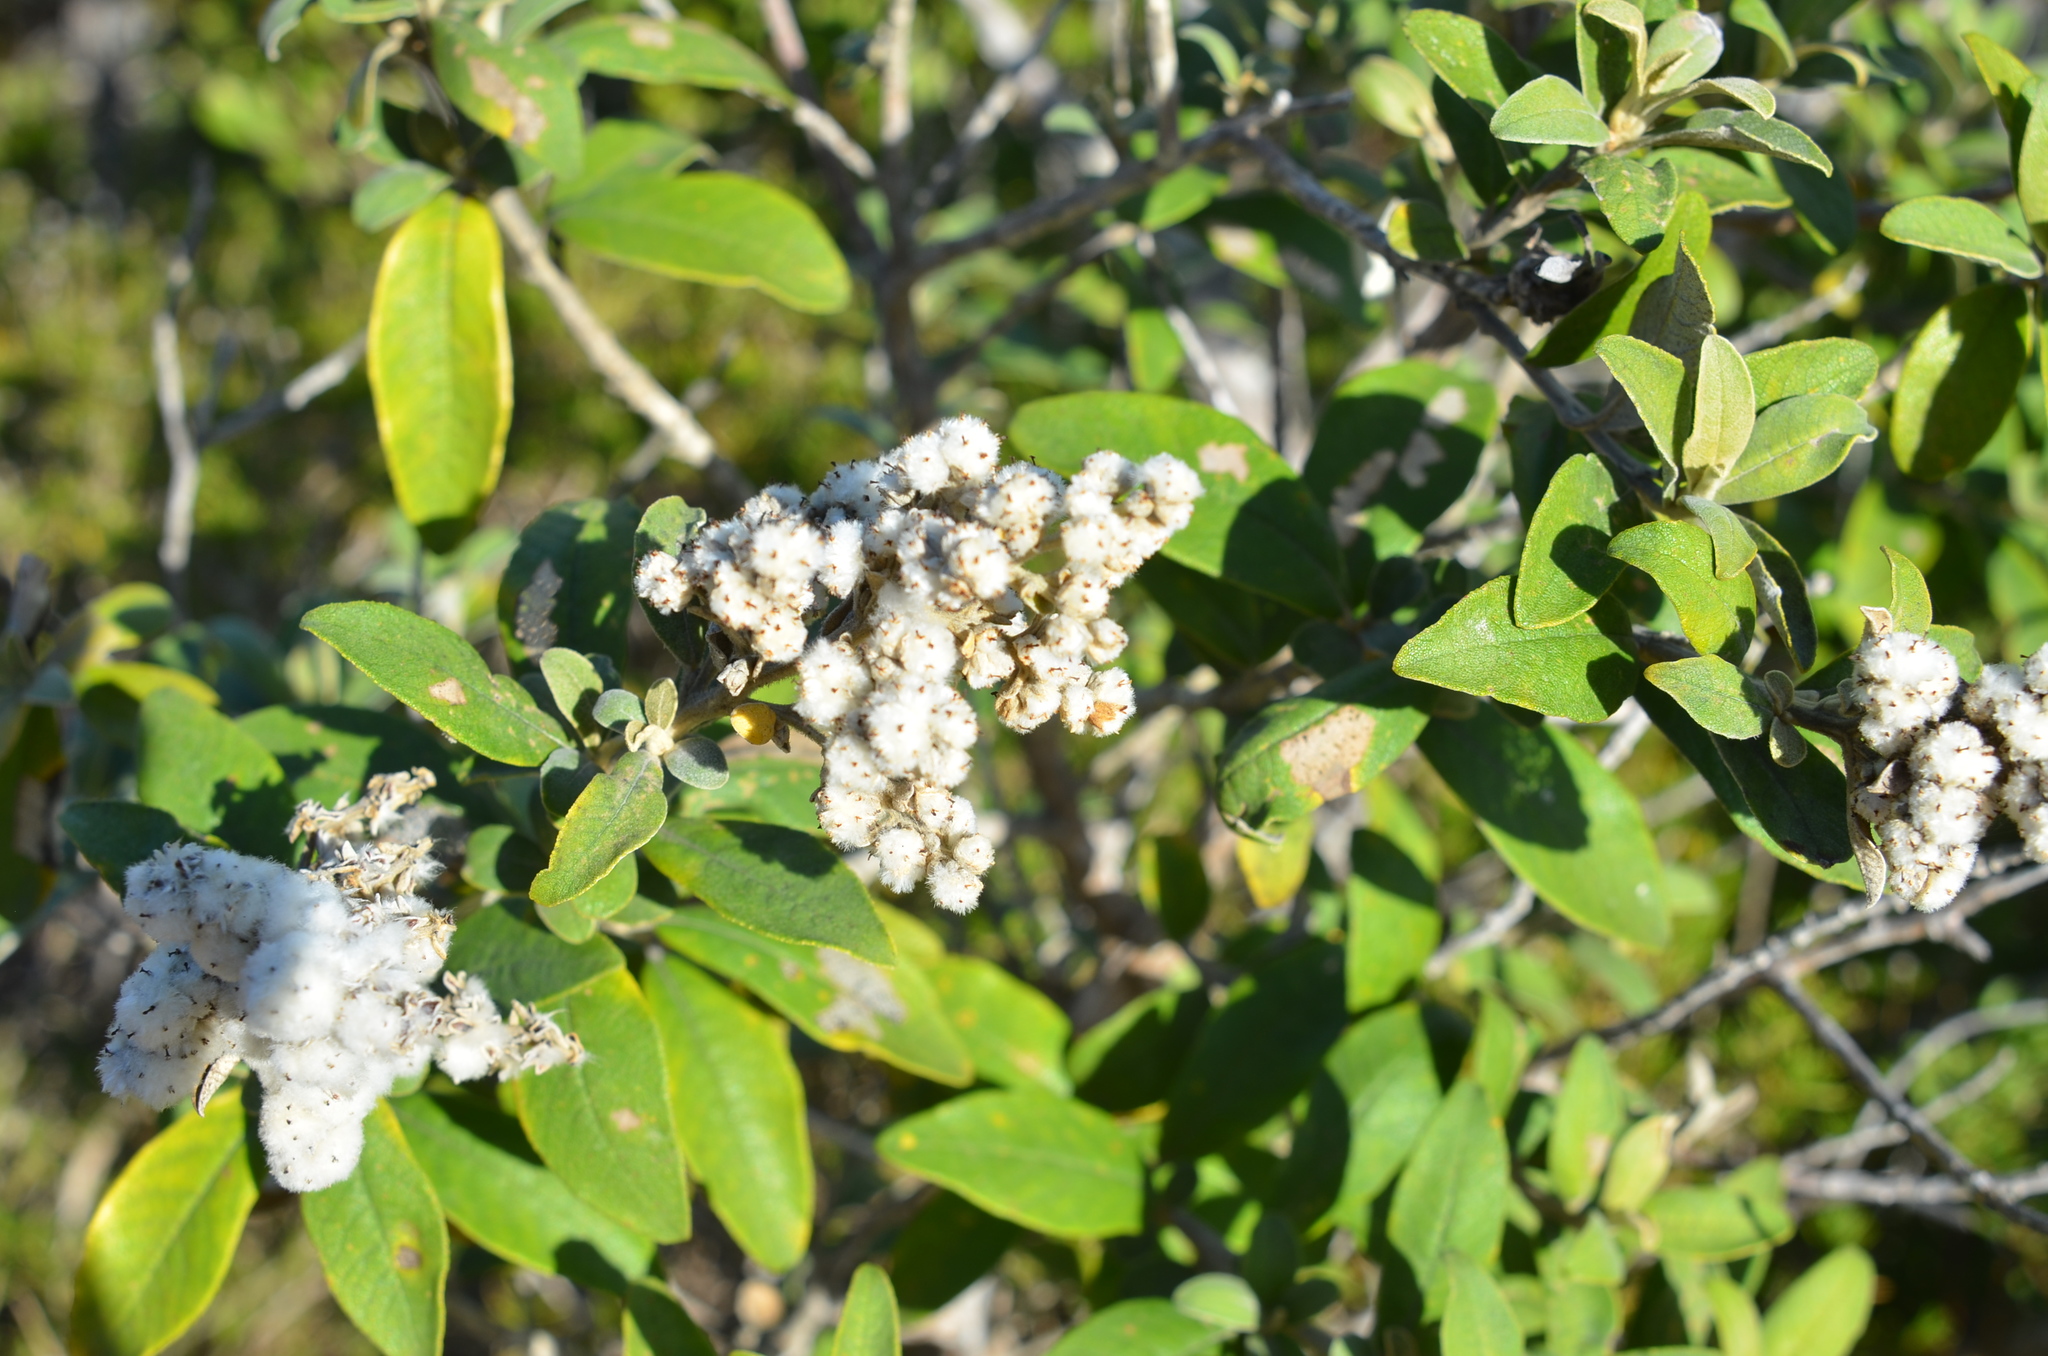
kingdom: Plantae
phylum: Tracheophyta
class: Magnoliopsida
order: Asterales
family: Asteraceae
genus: Tarchonanthus
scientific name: Tarchonanthus littoralis
